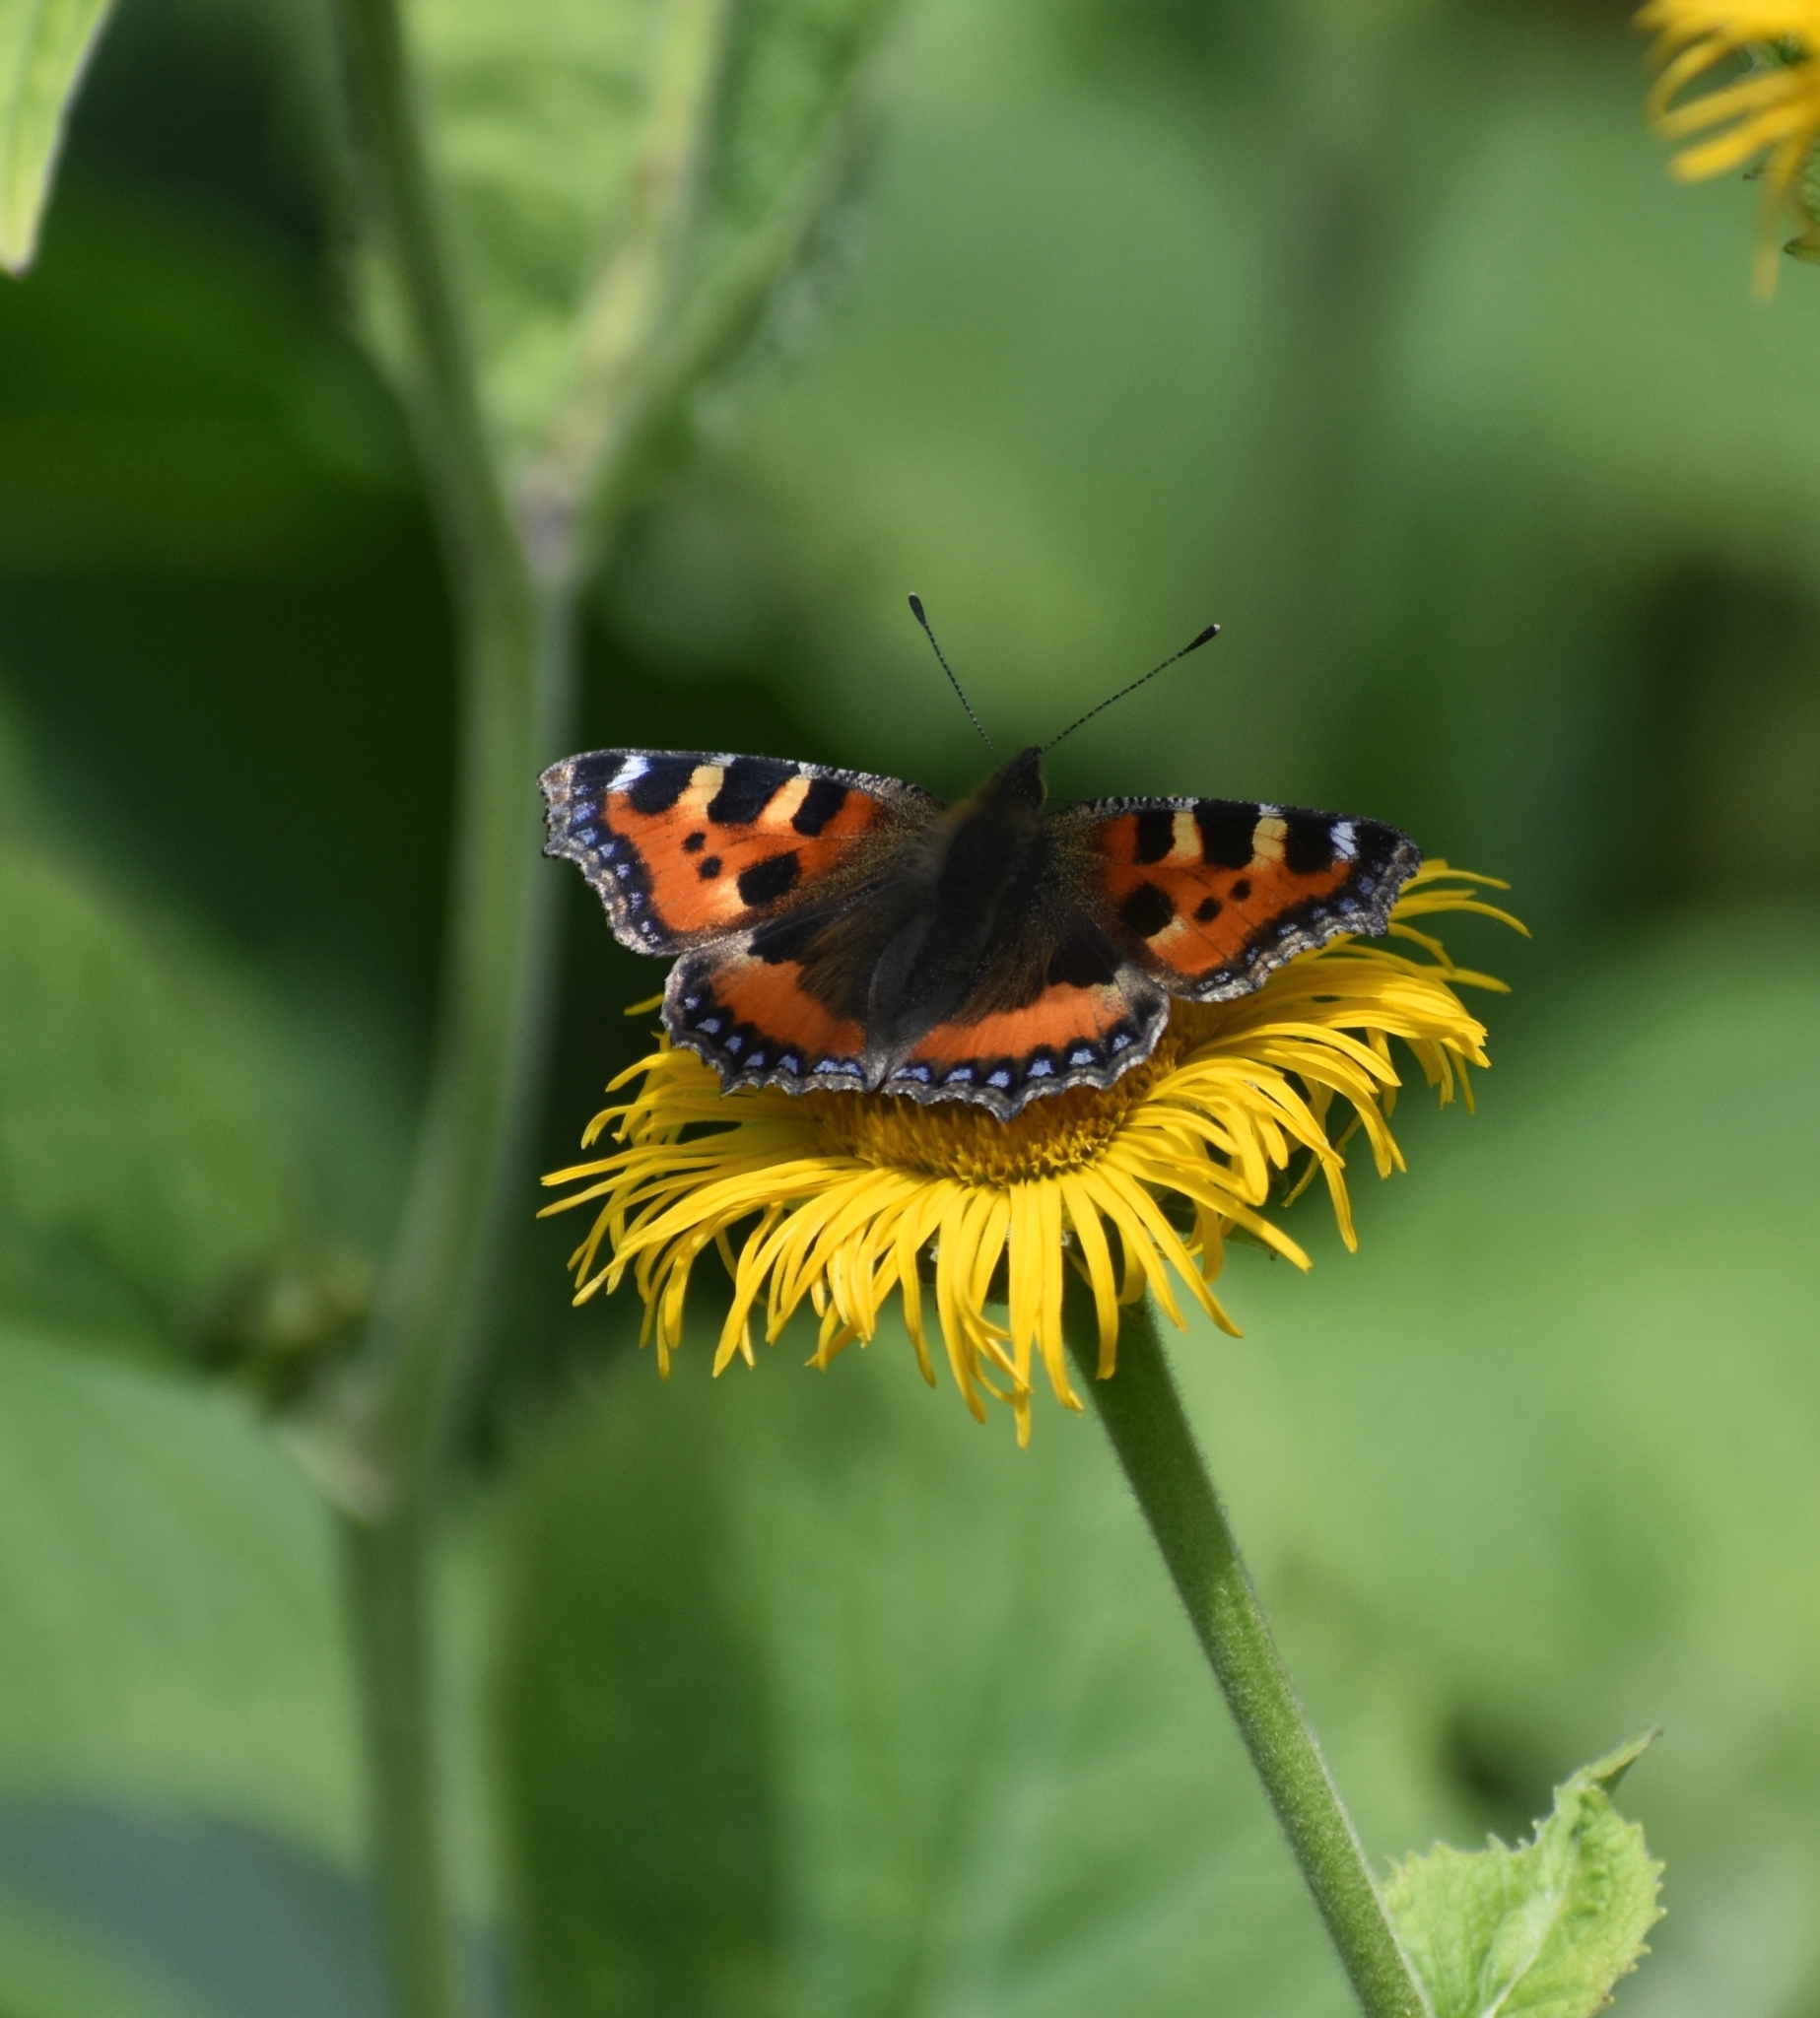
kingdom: Animalia
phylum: Arthropoda
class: Insecta
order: Lepidoptera
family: Nymphalidae
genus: Aglais
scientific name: Aglais urticae
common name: Small tortoiseshell
